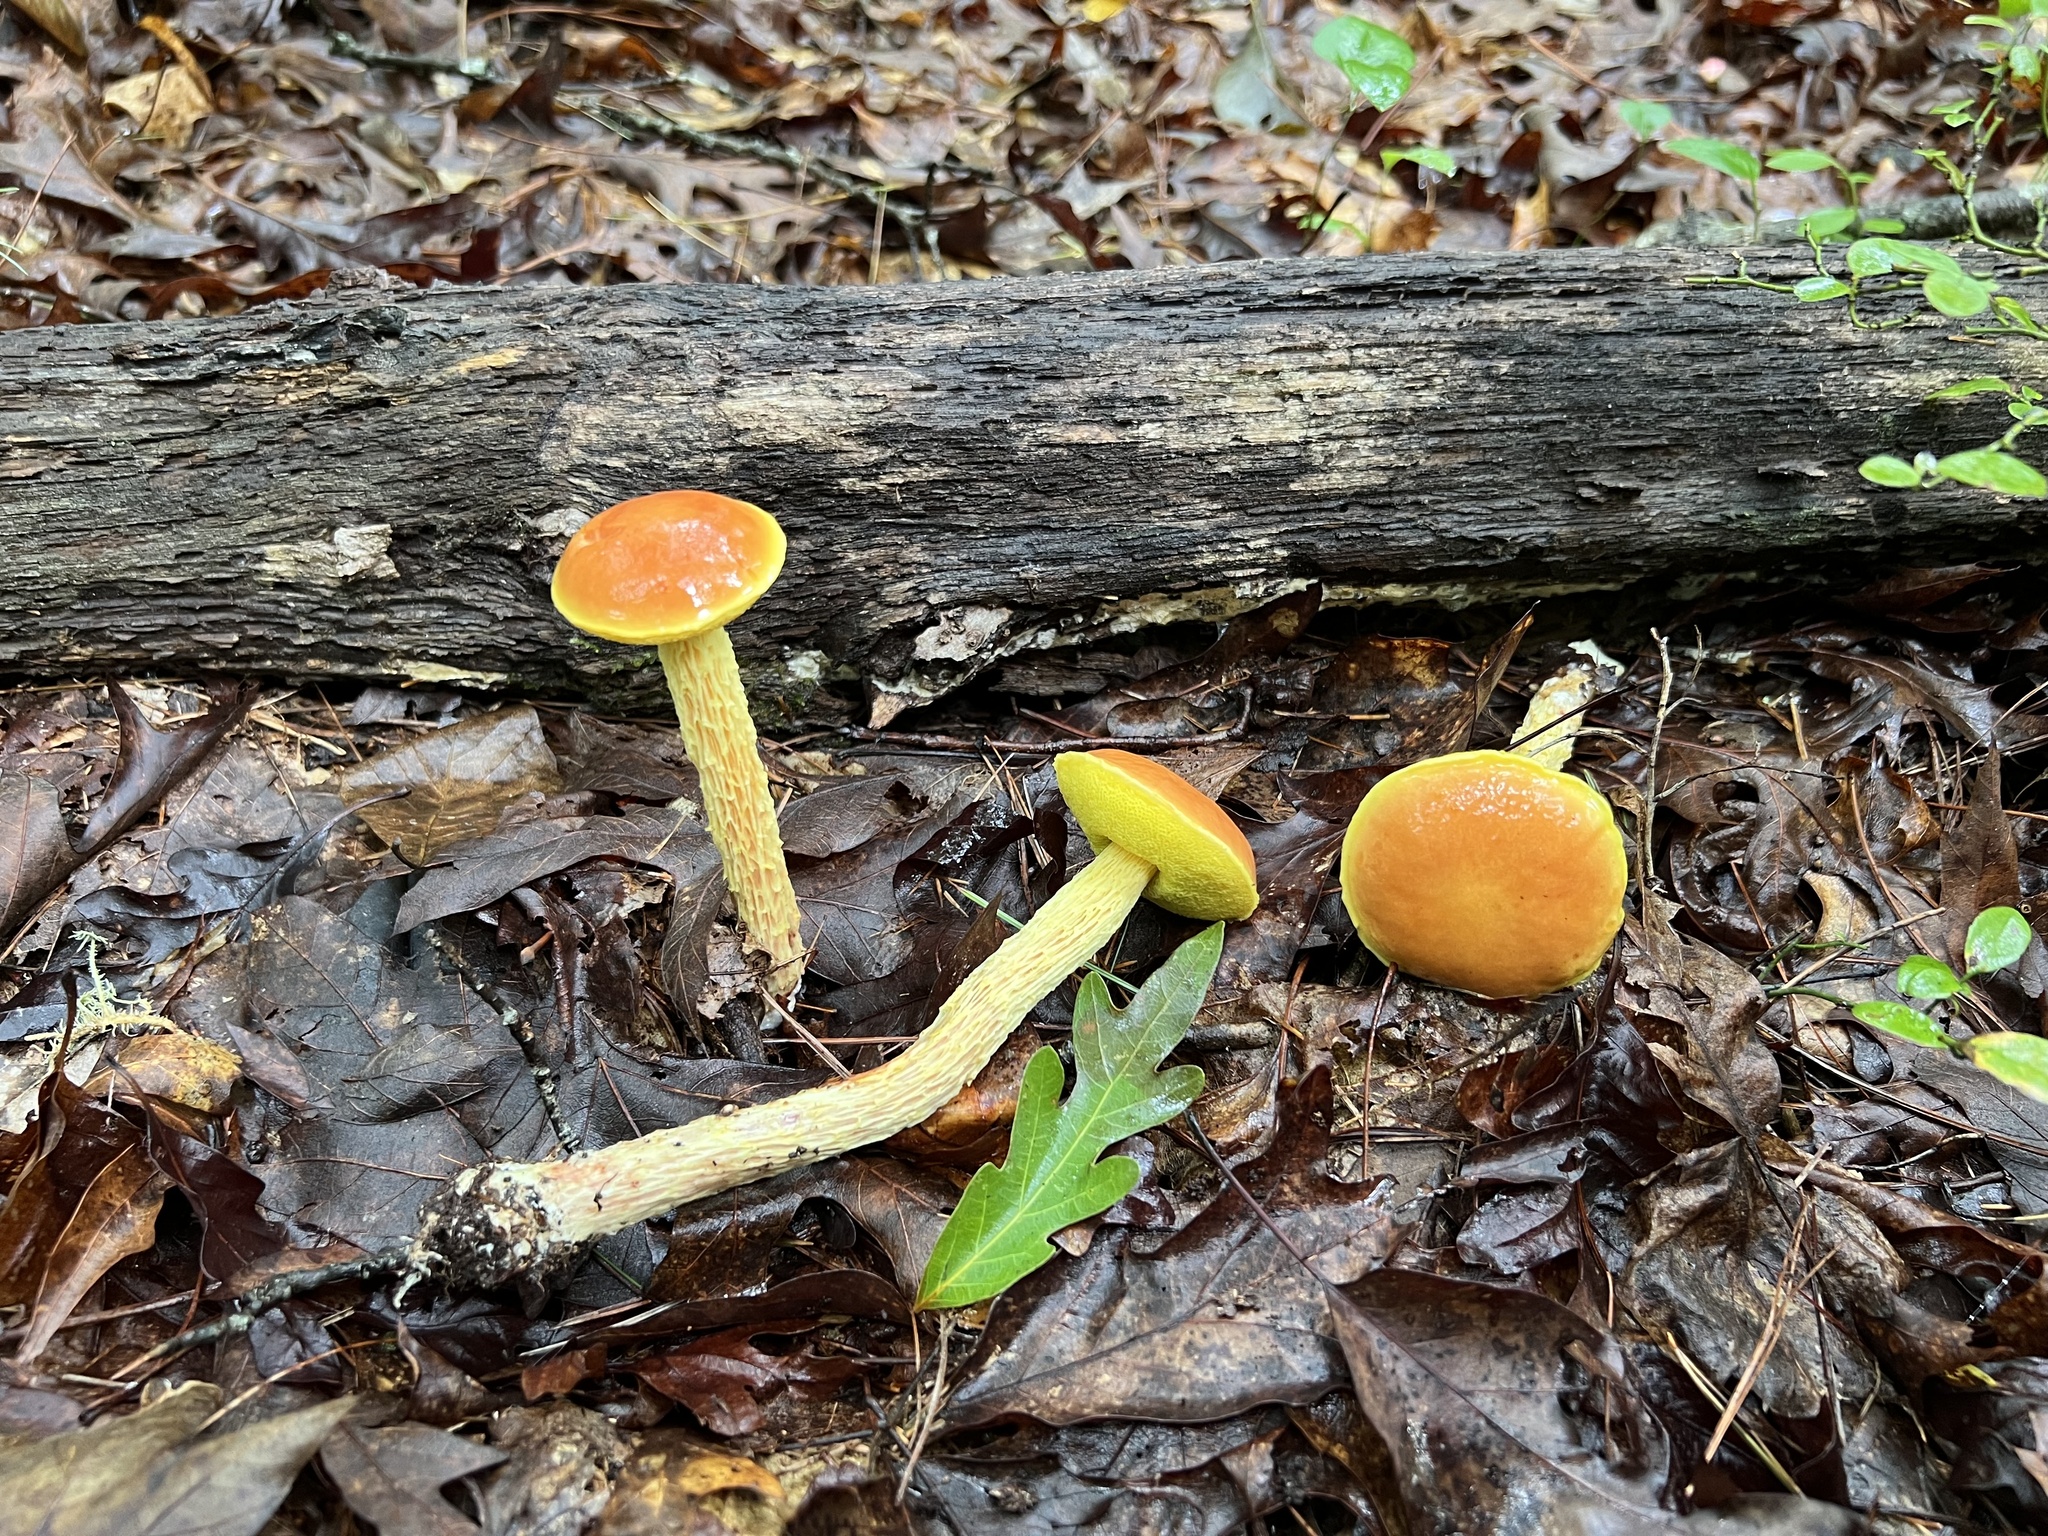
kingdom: Fungi
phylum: Basidiomycota
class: Agaricomycetes
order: Boletales
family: Boletaceae
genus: Aureoboletus
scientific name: Aureoboletus betula
